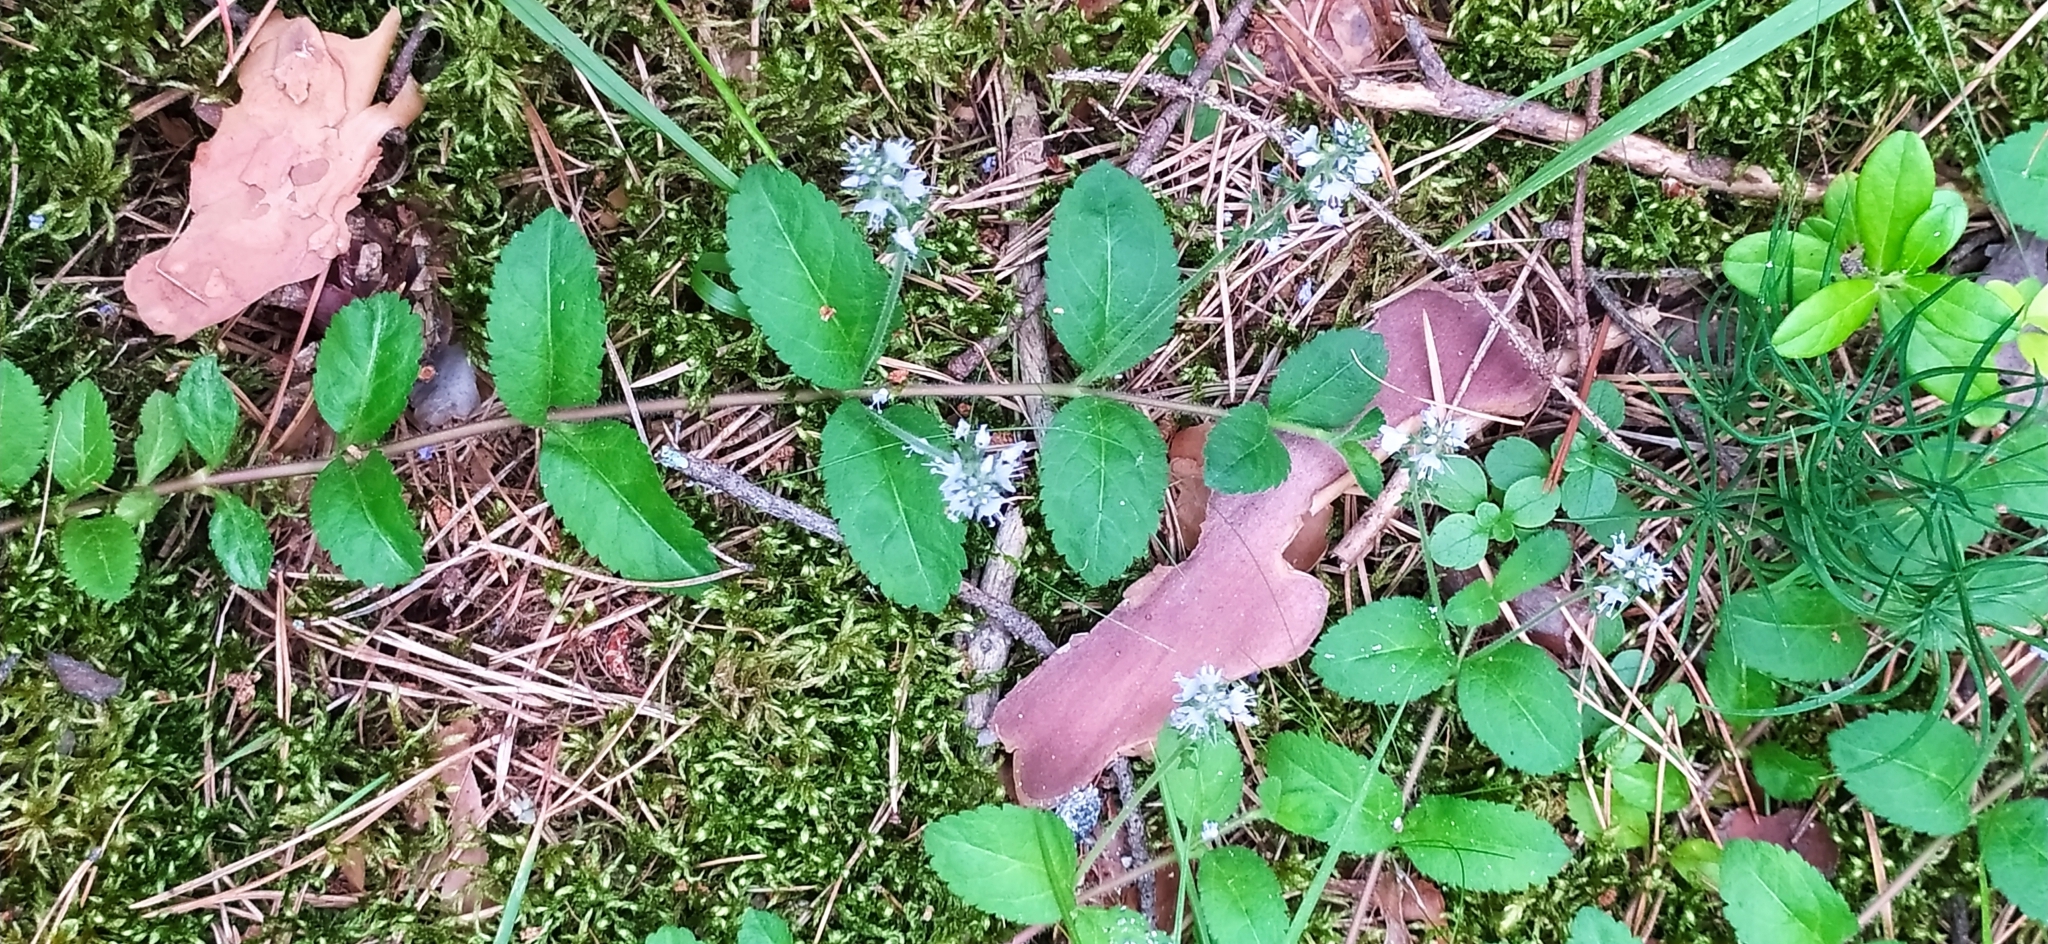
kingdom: Plantae
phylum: Tracheophyta
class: Magnoliopsida
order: Lamiales
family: Plantaginaceae
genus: Veronica
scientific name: Veronica officinalis
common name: Common speedwell
